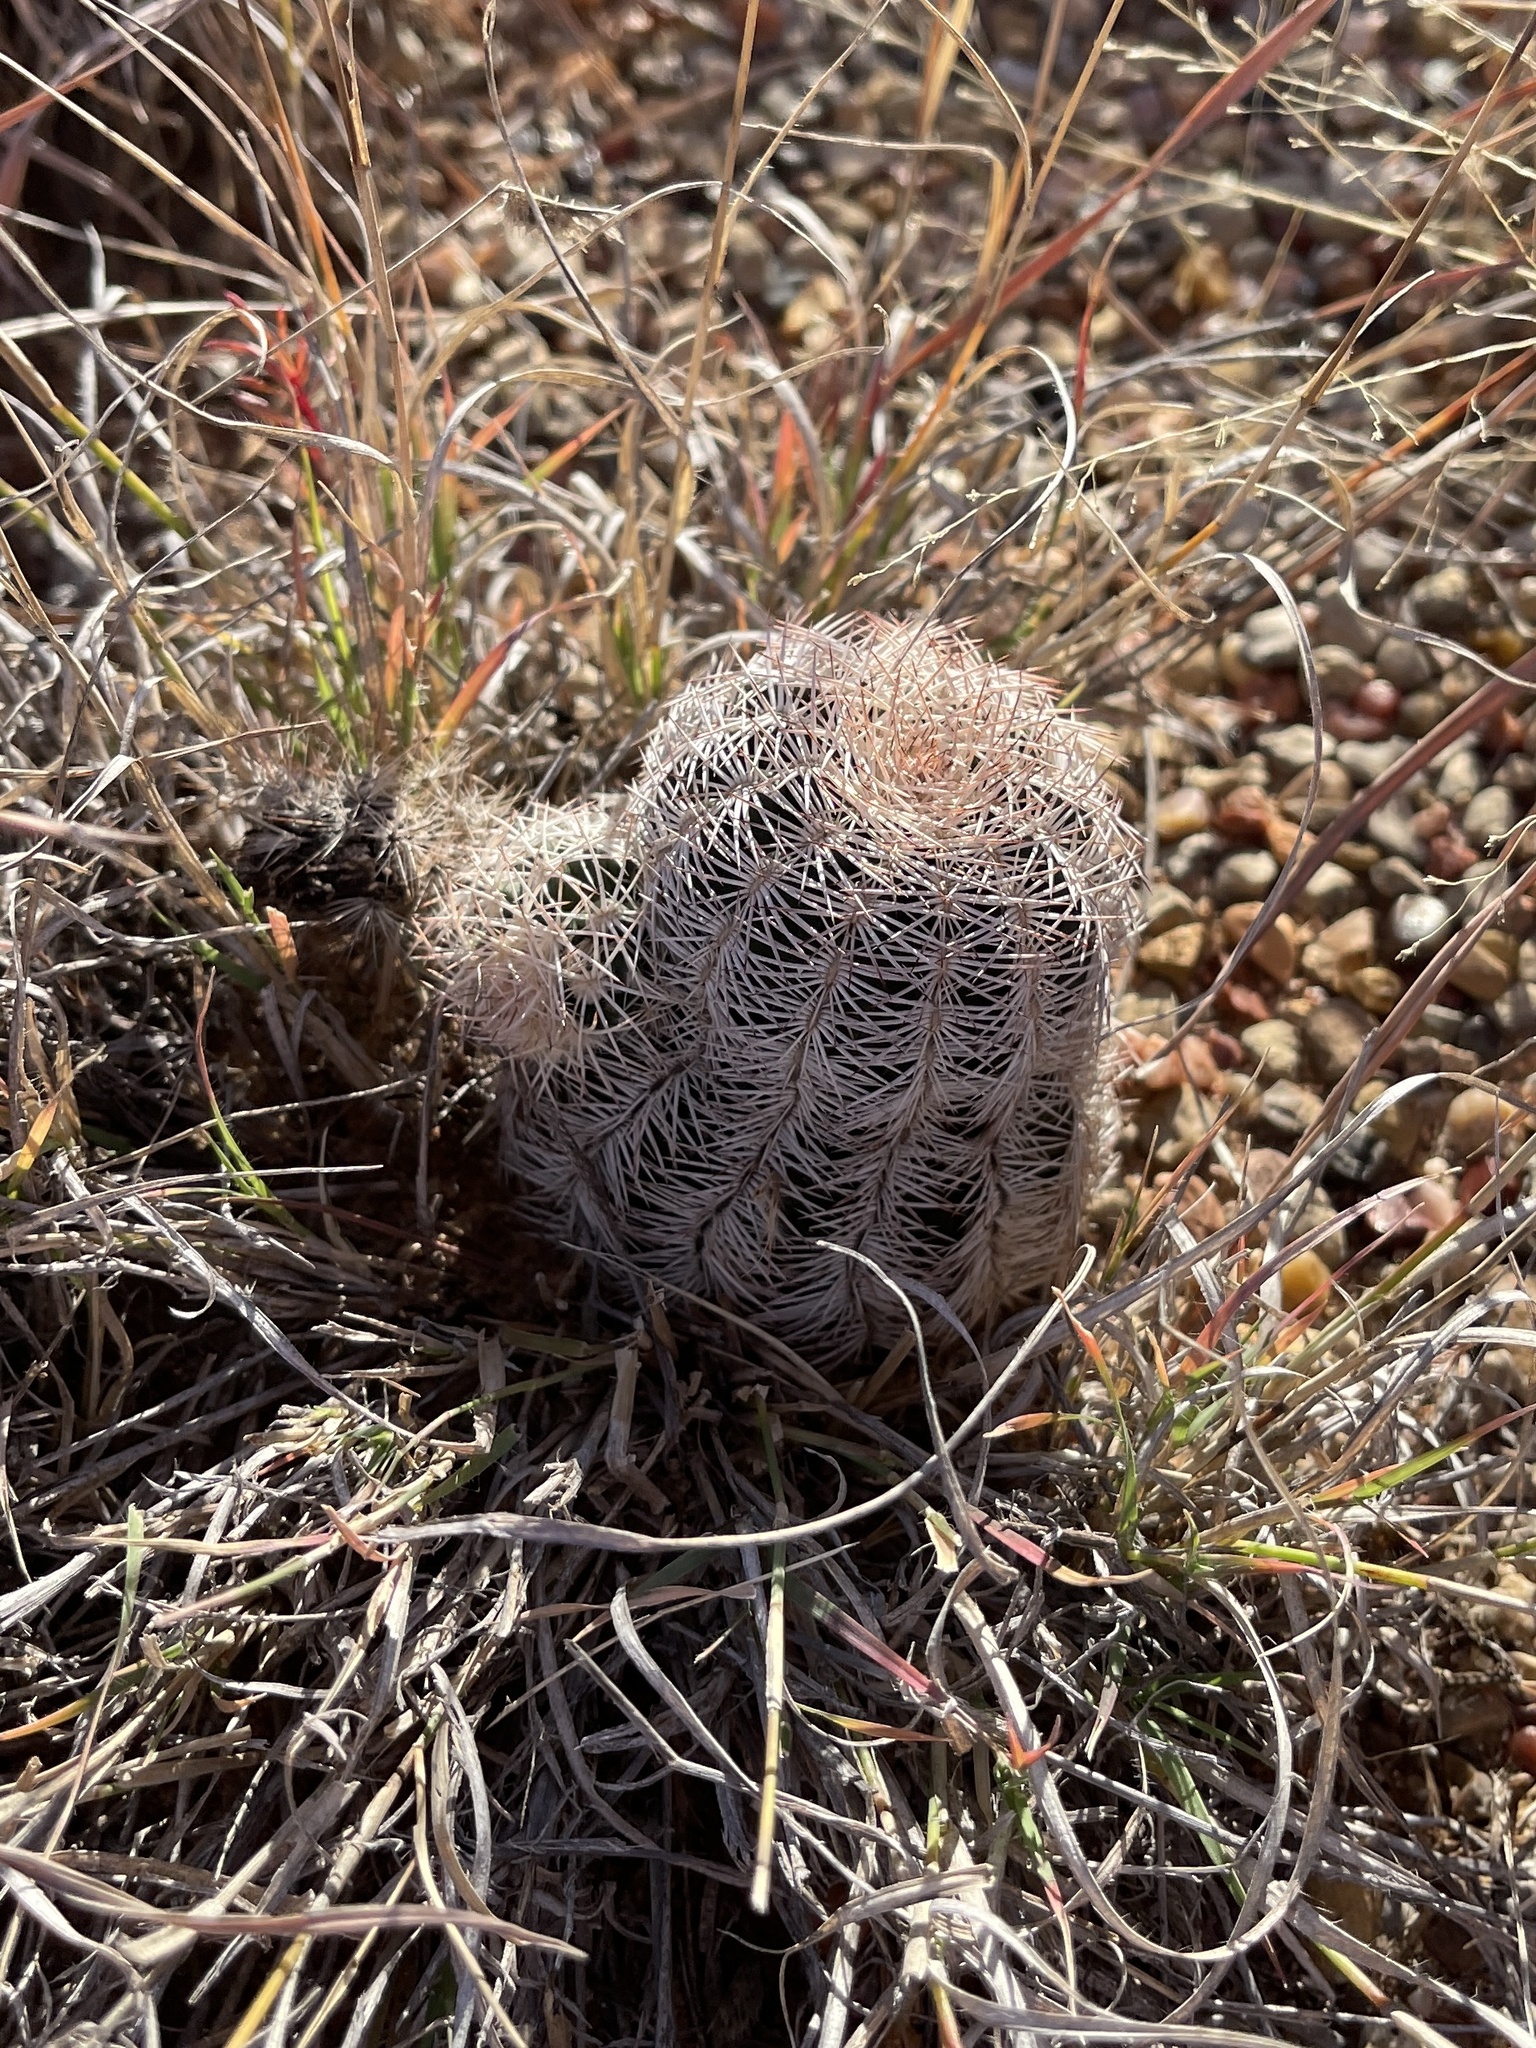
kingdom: Plantae
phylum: Tracheophyta
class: Magnoliopsida
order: Caryophyllales
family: Cactaceae
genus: Echinocereus
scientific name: Echinocereus reichenbachii
